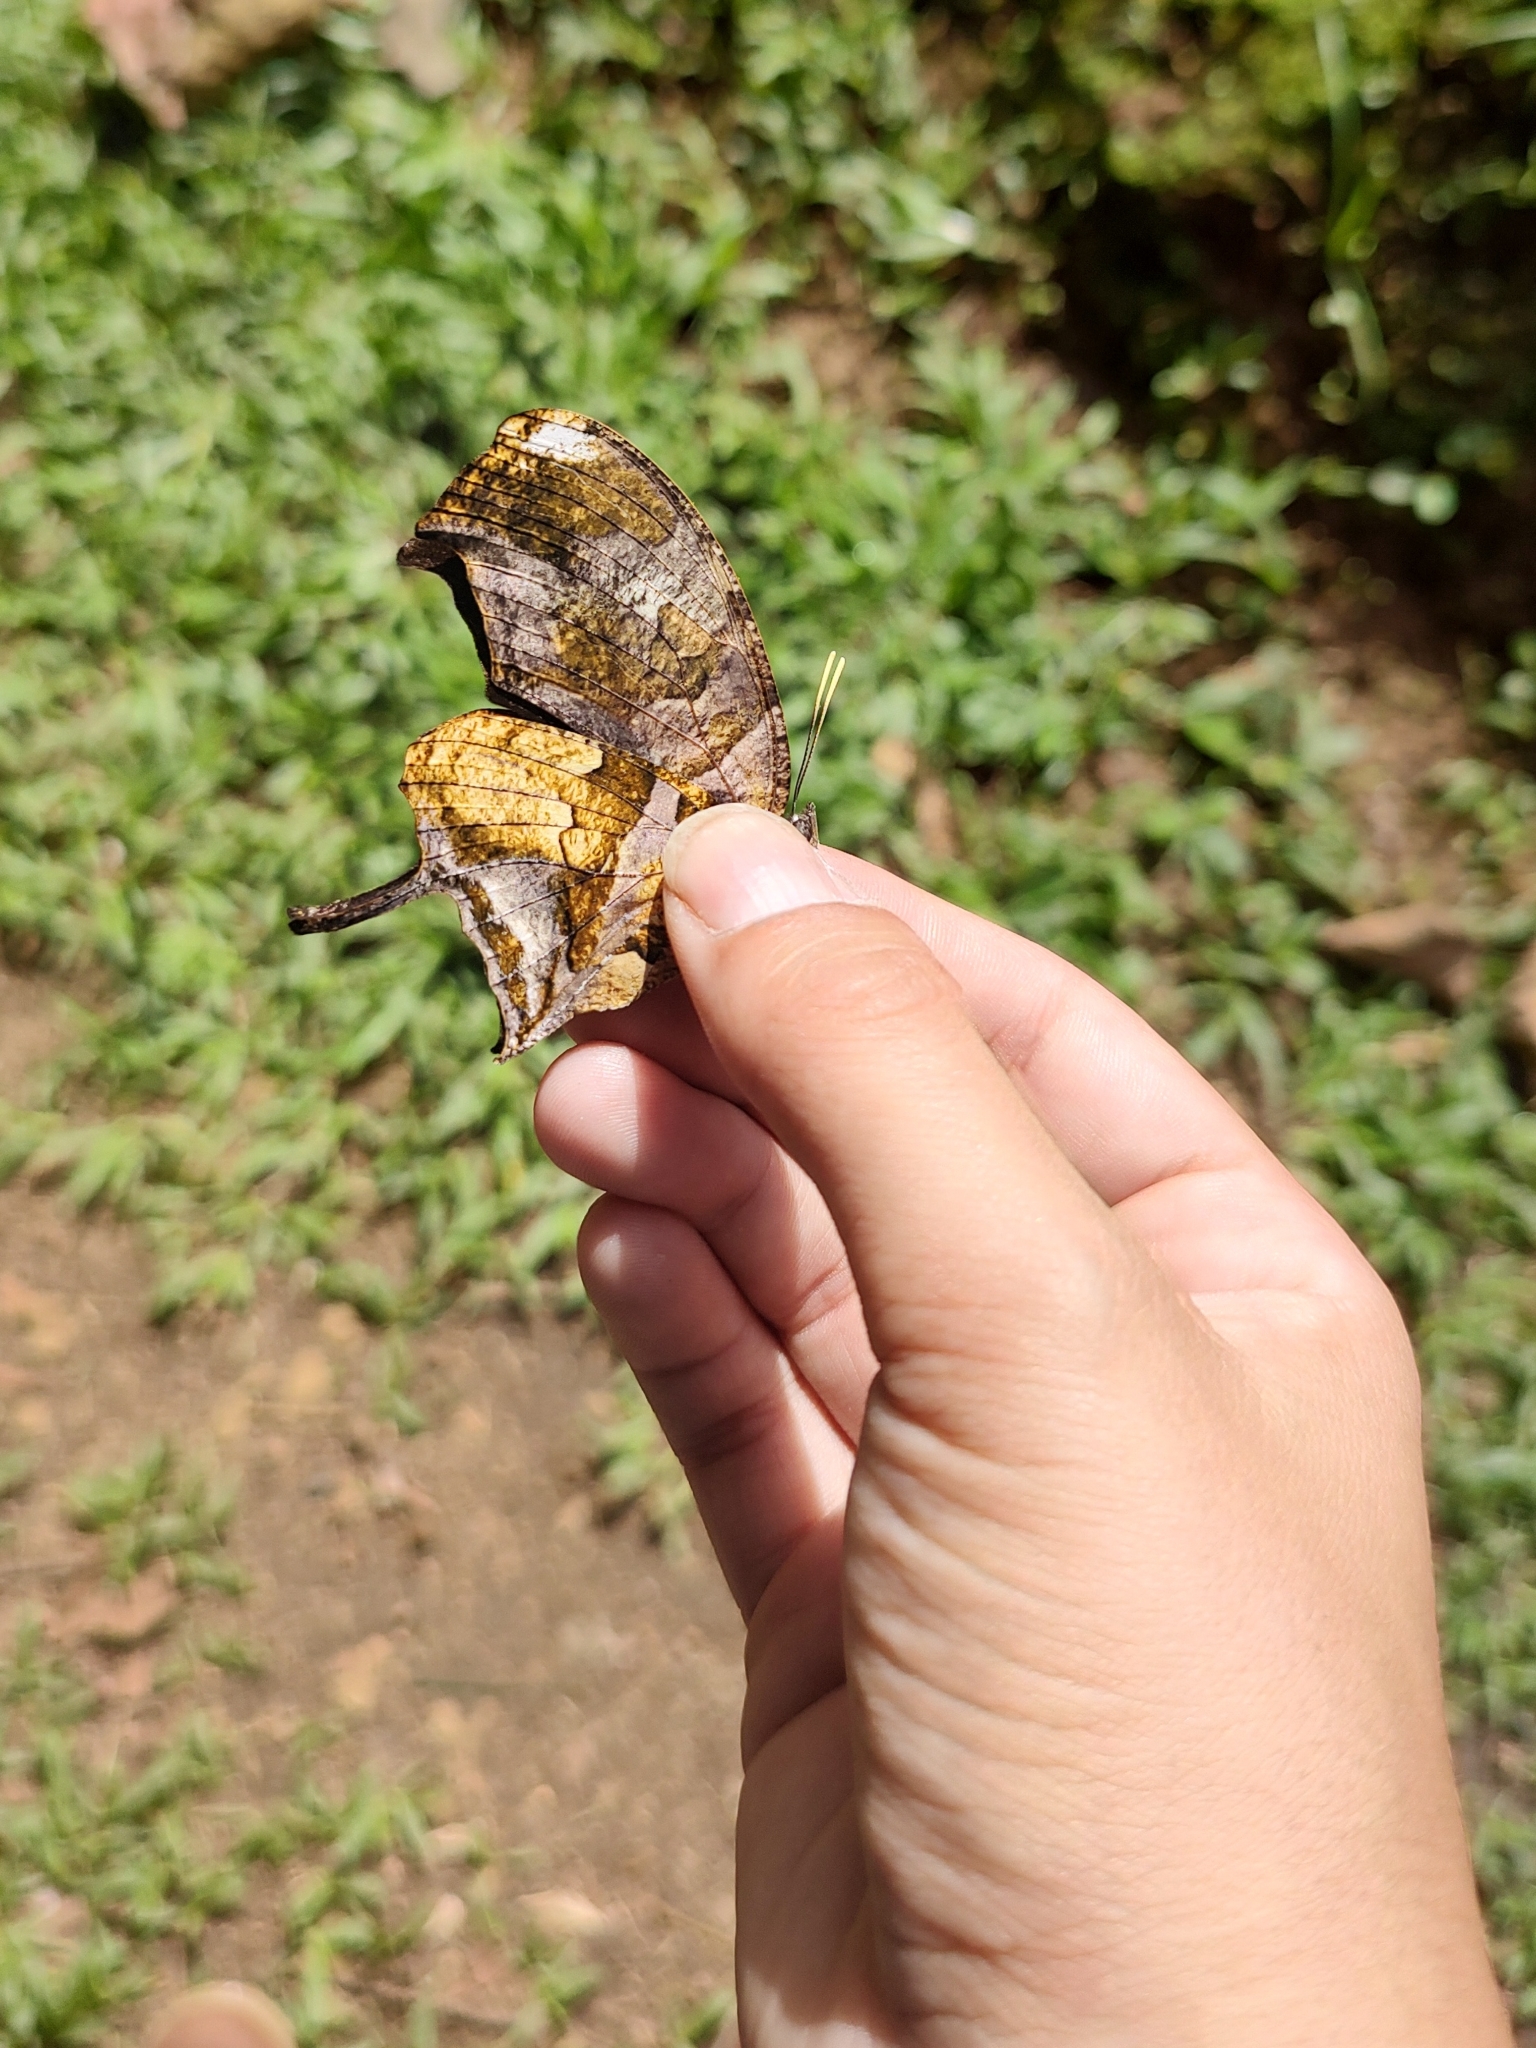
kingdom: Animalia
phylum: Arthropoda
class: Insecta
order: Lepidoptera
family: Nymphalidae
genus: Consul
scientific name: Consul fabius
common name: Tiger leafwing
